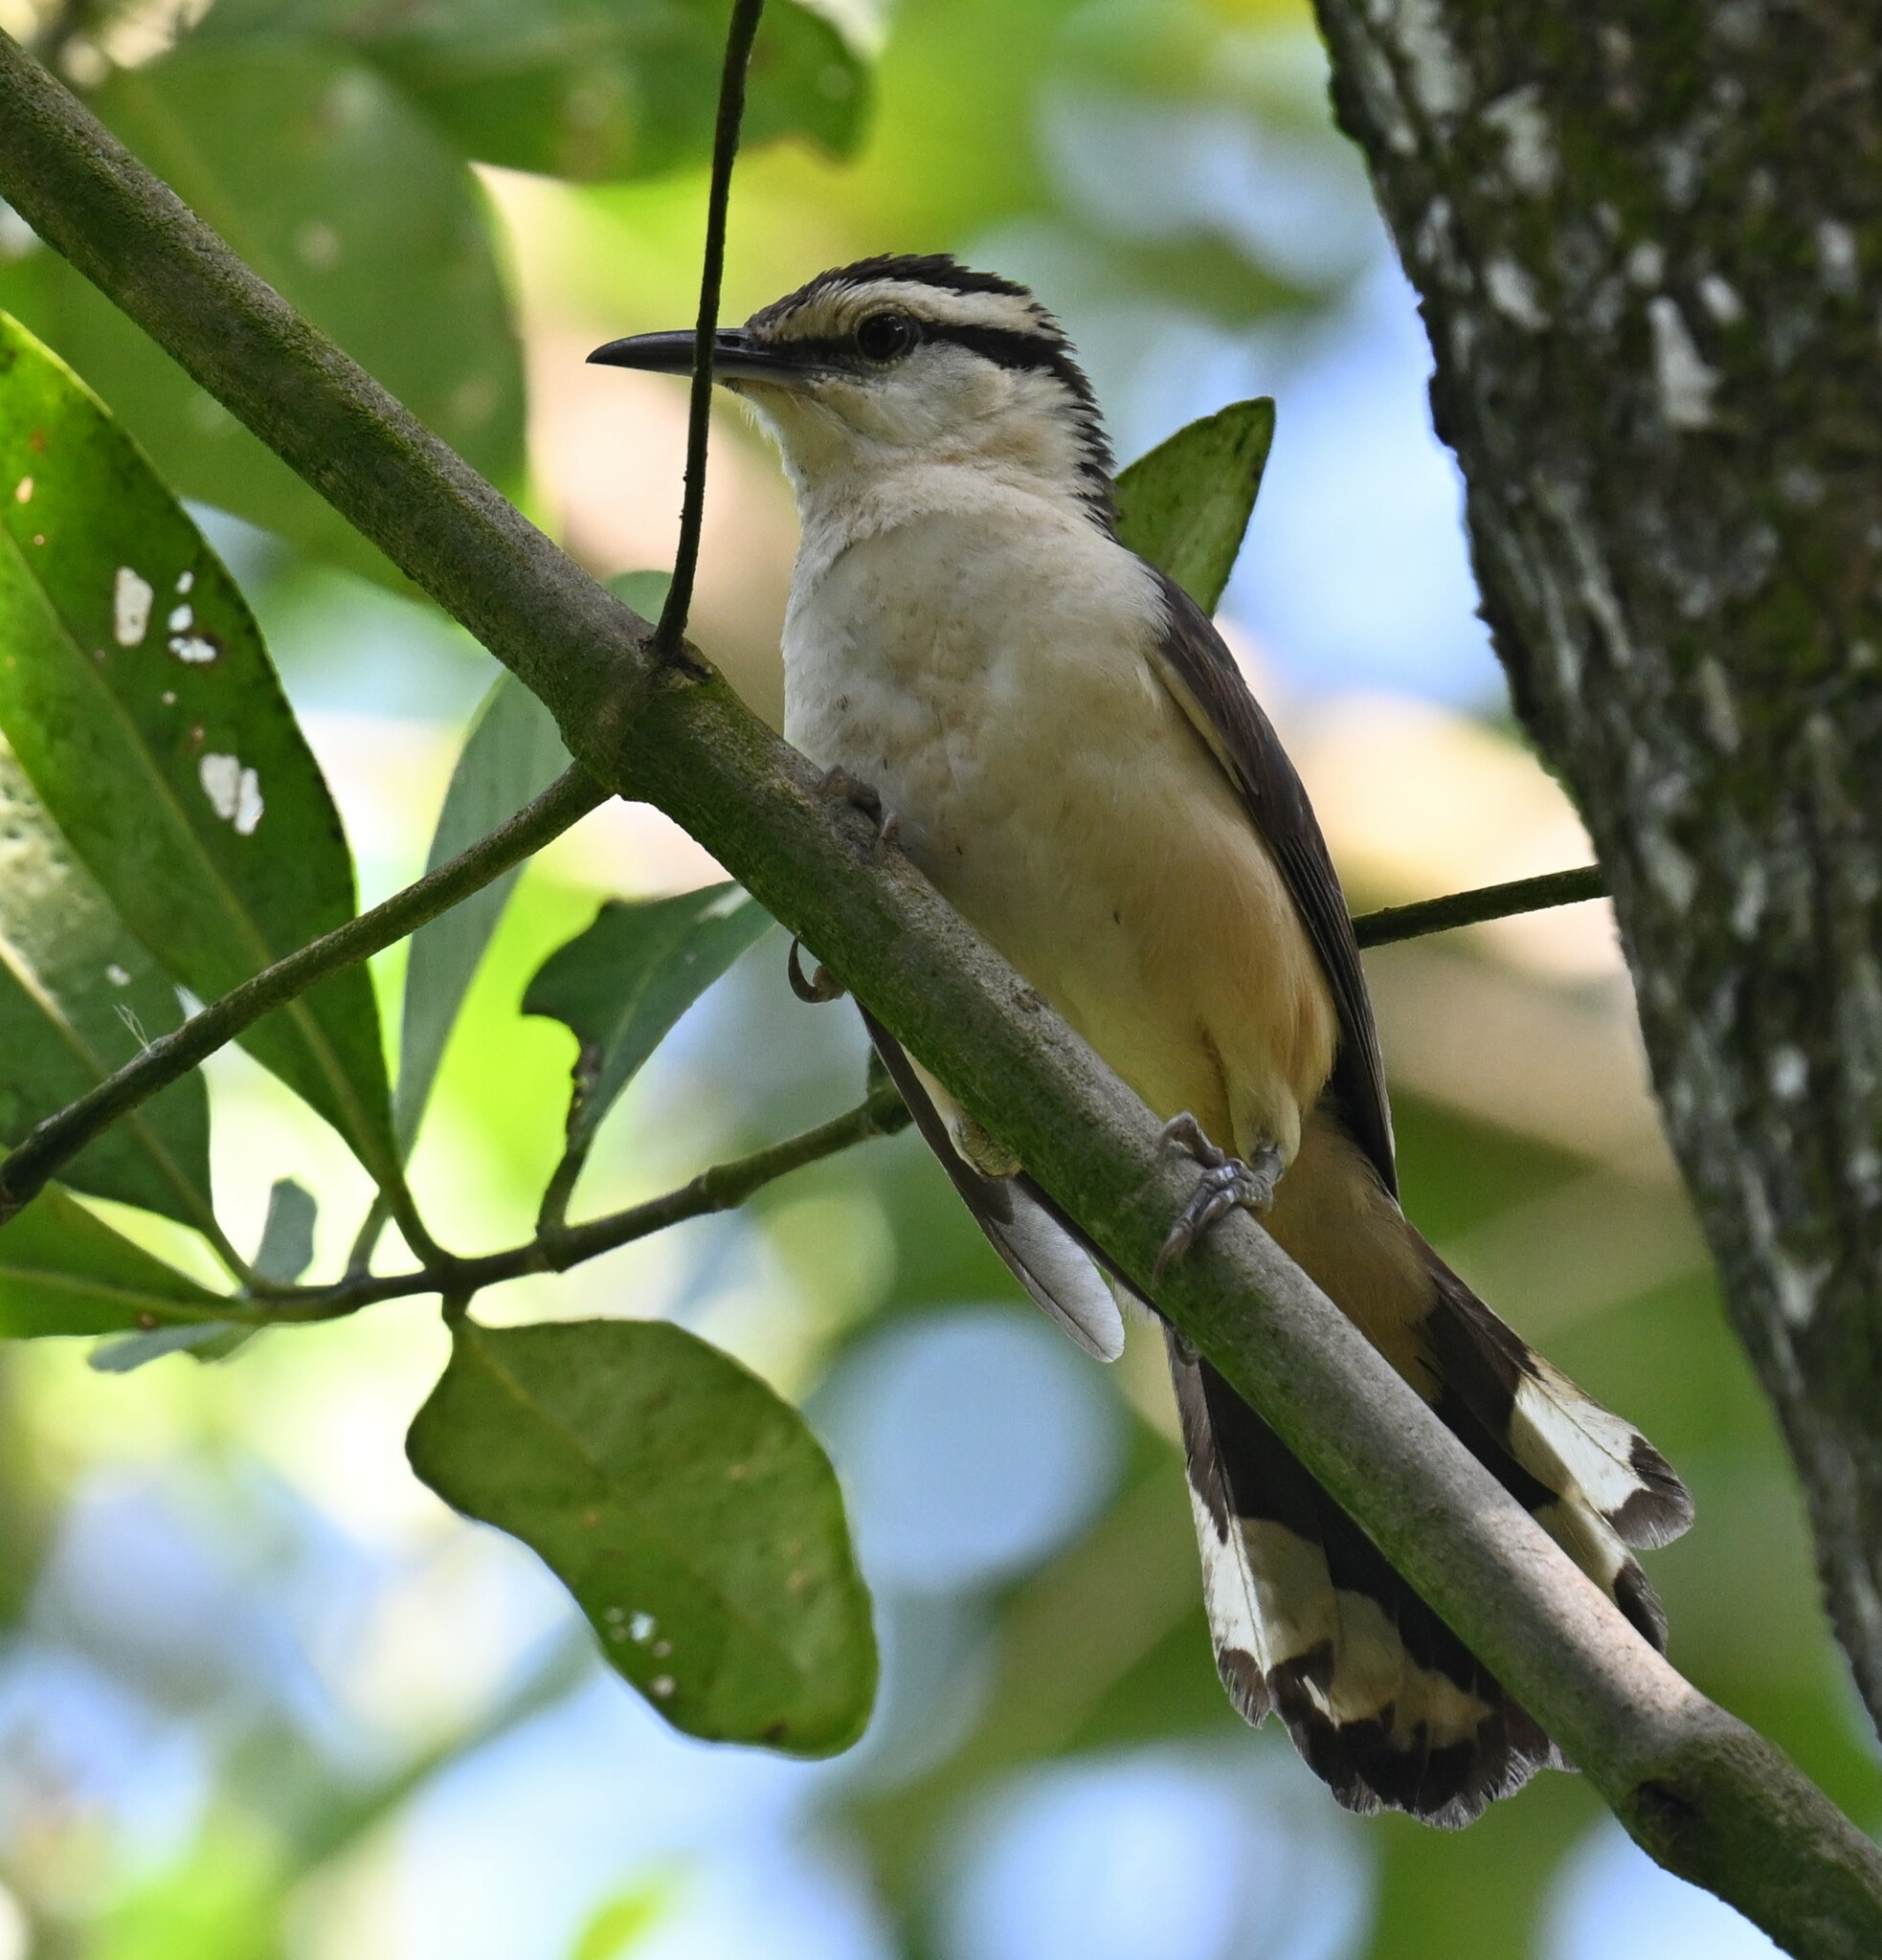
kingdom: Animalia
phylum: Chordata
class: Aves
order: Passeriformes
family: Troglodytidae
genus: Campylorhynchus
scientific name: Campylorhynchus griseus
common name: Bicolored wren
